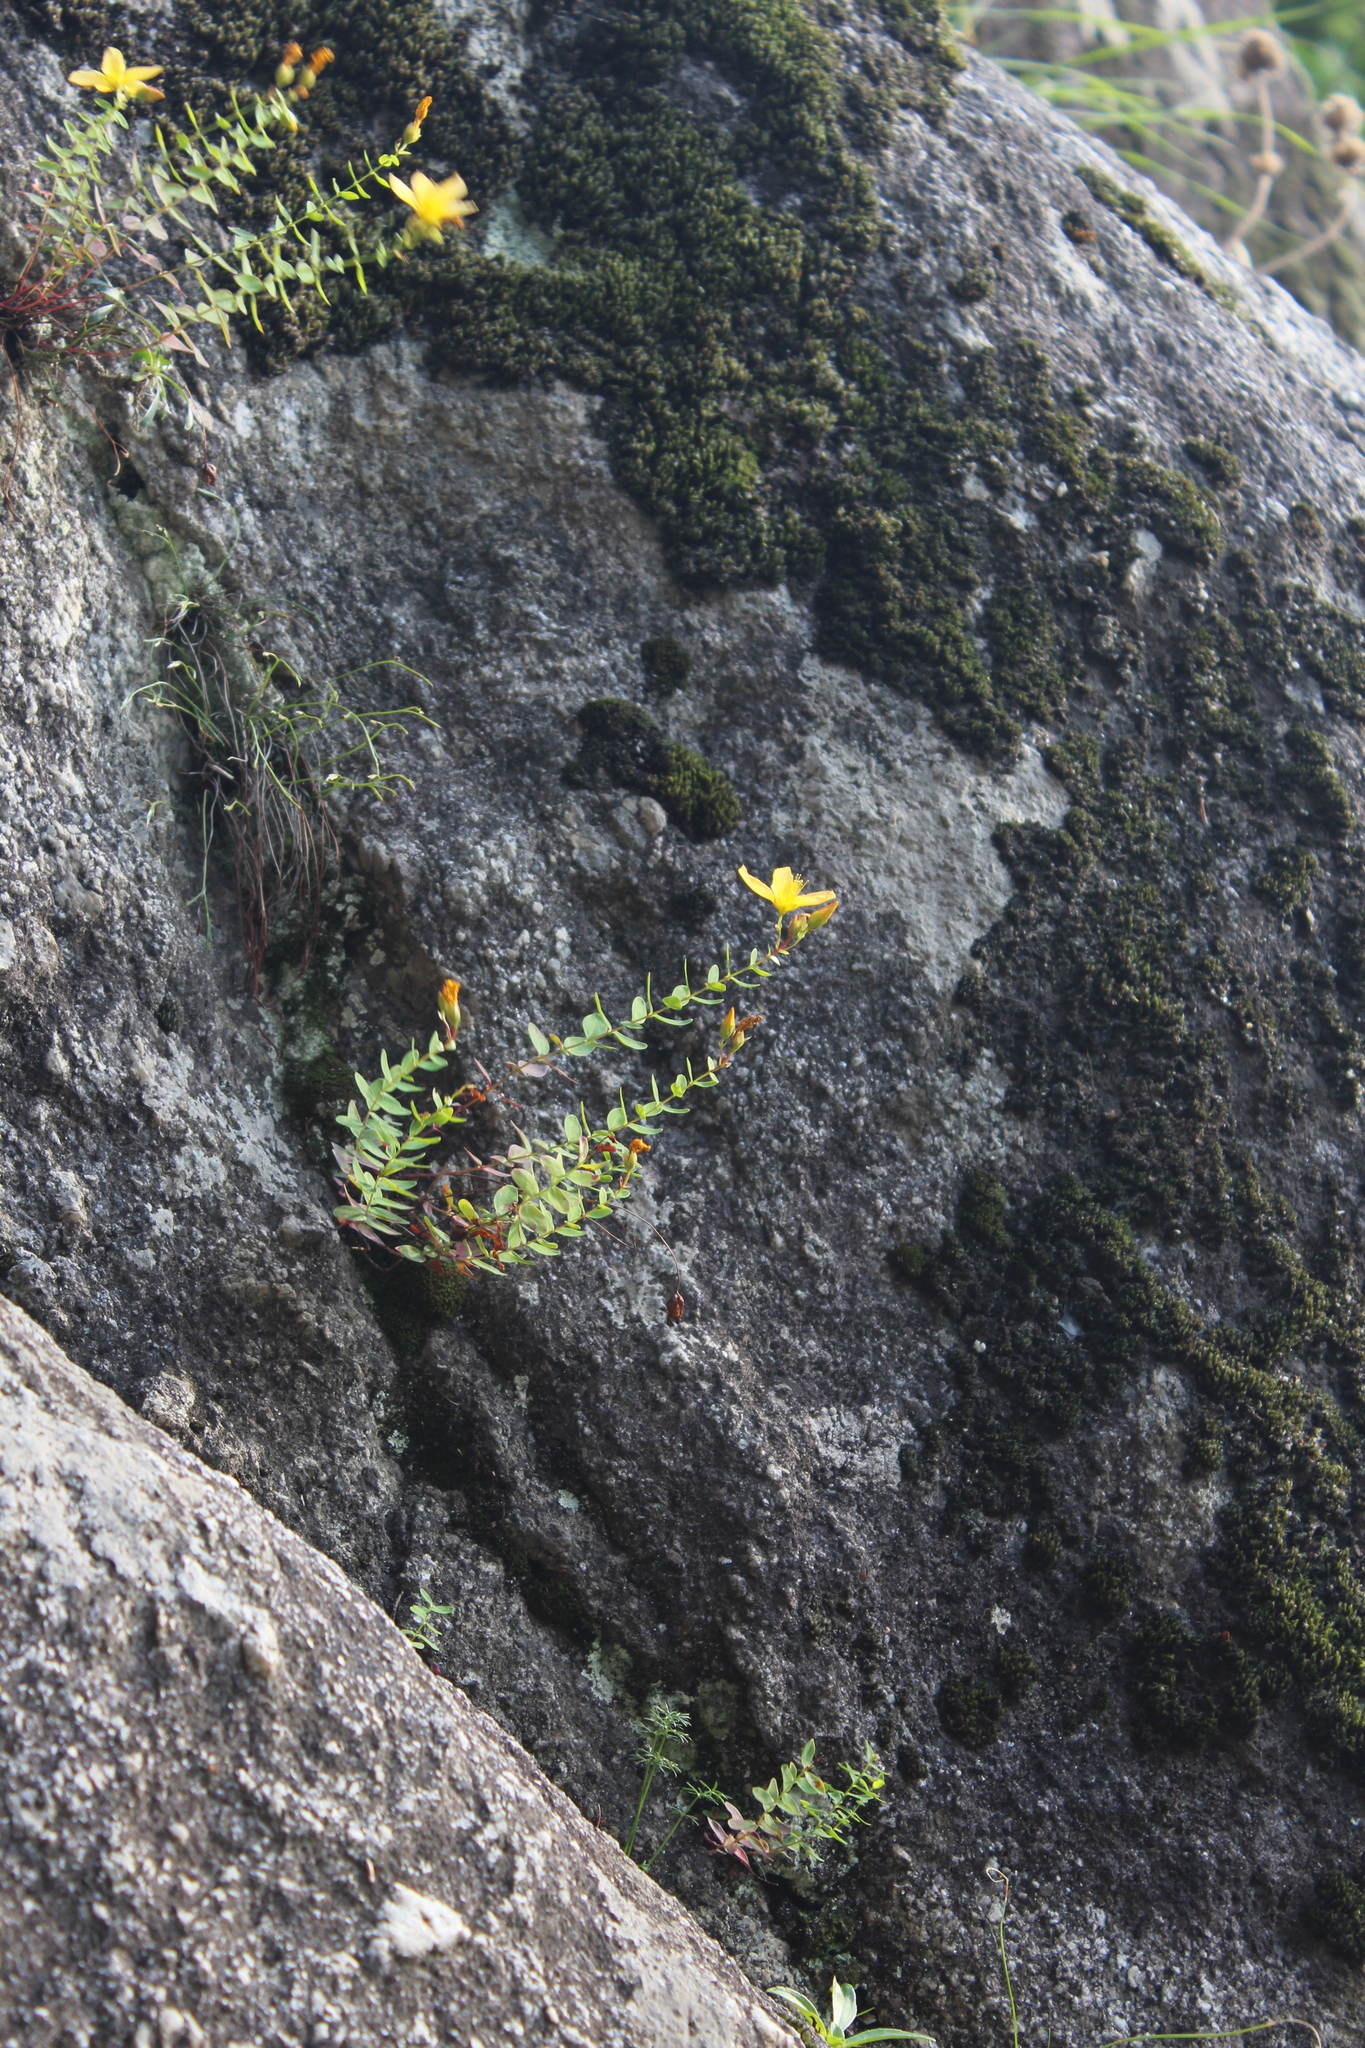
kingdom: Plantae
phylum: Tracheophyta
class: Magnoliopsida
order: Malpighiales
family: Hypericaceae
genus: Hypericum
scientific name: Hypericum nummularioides
